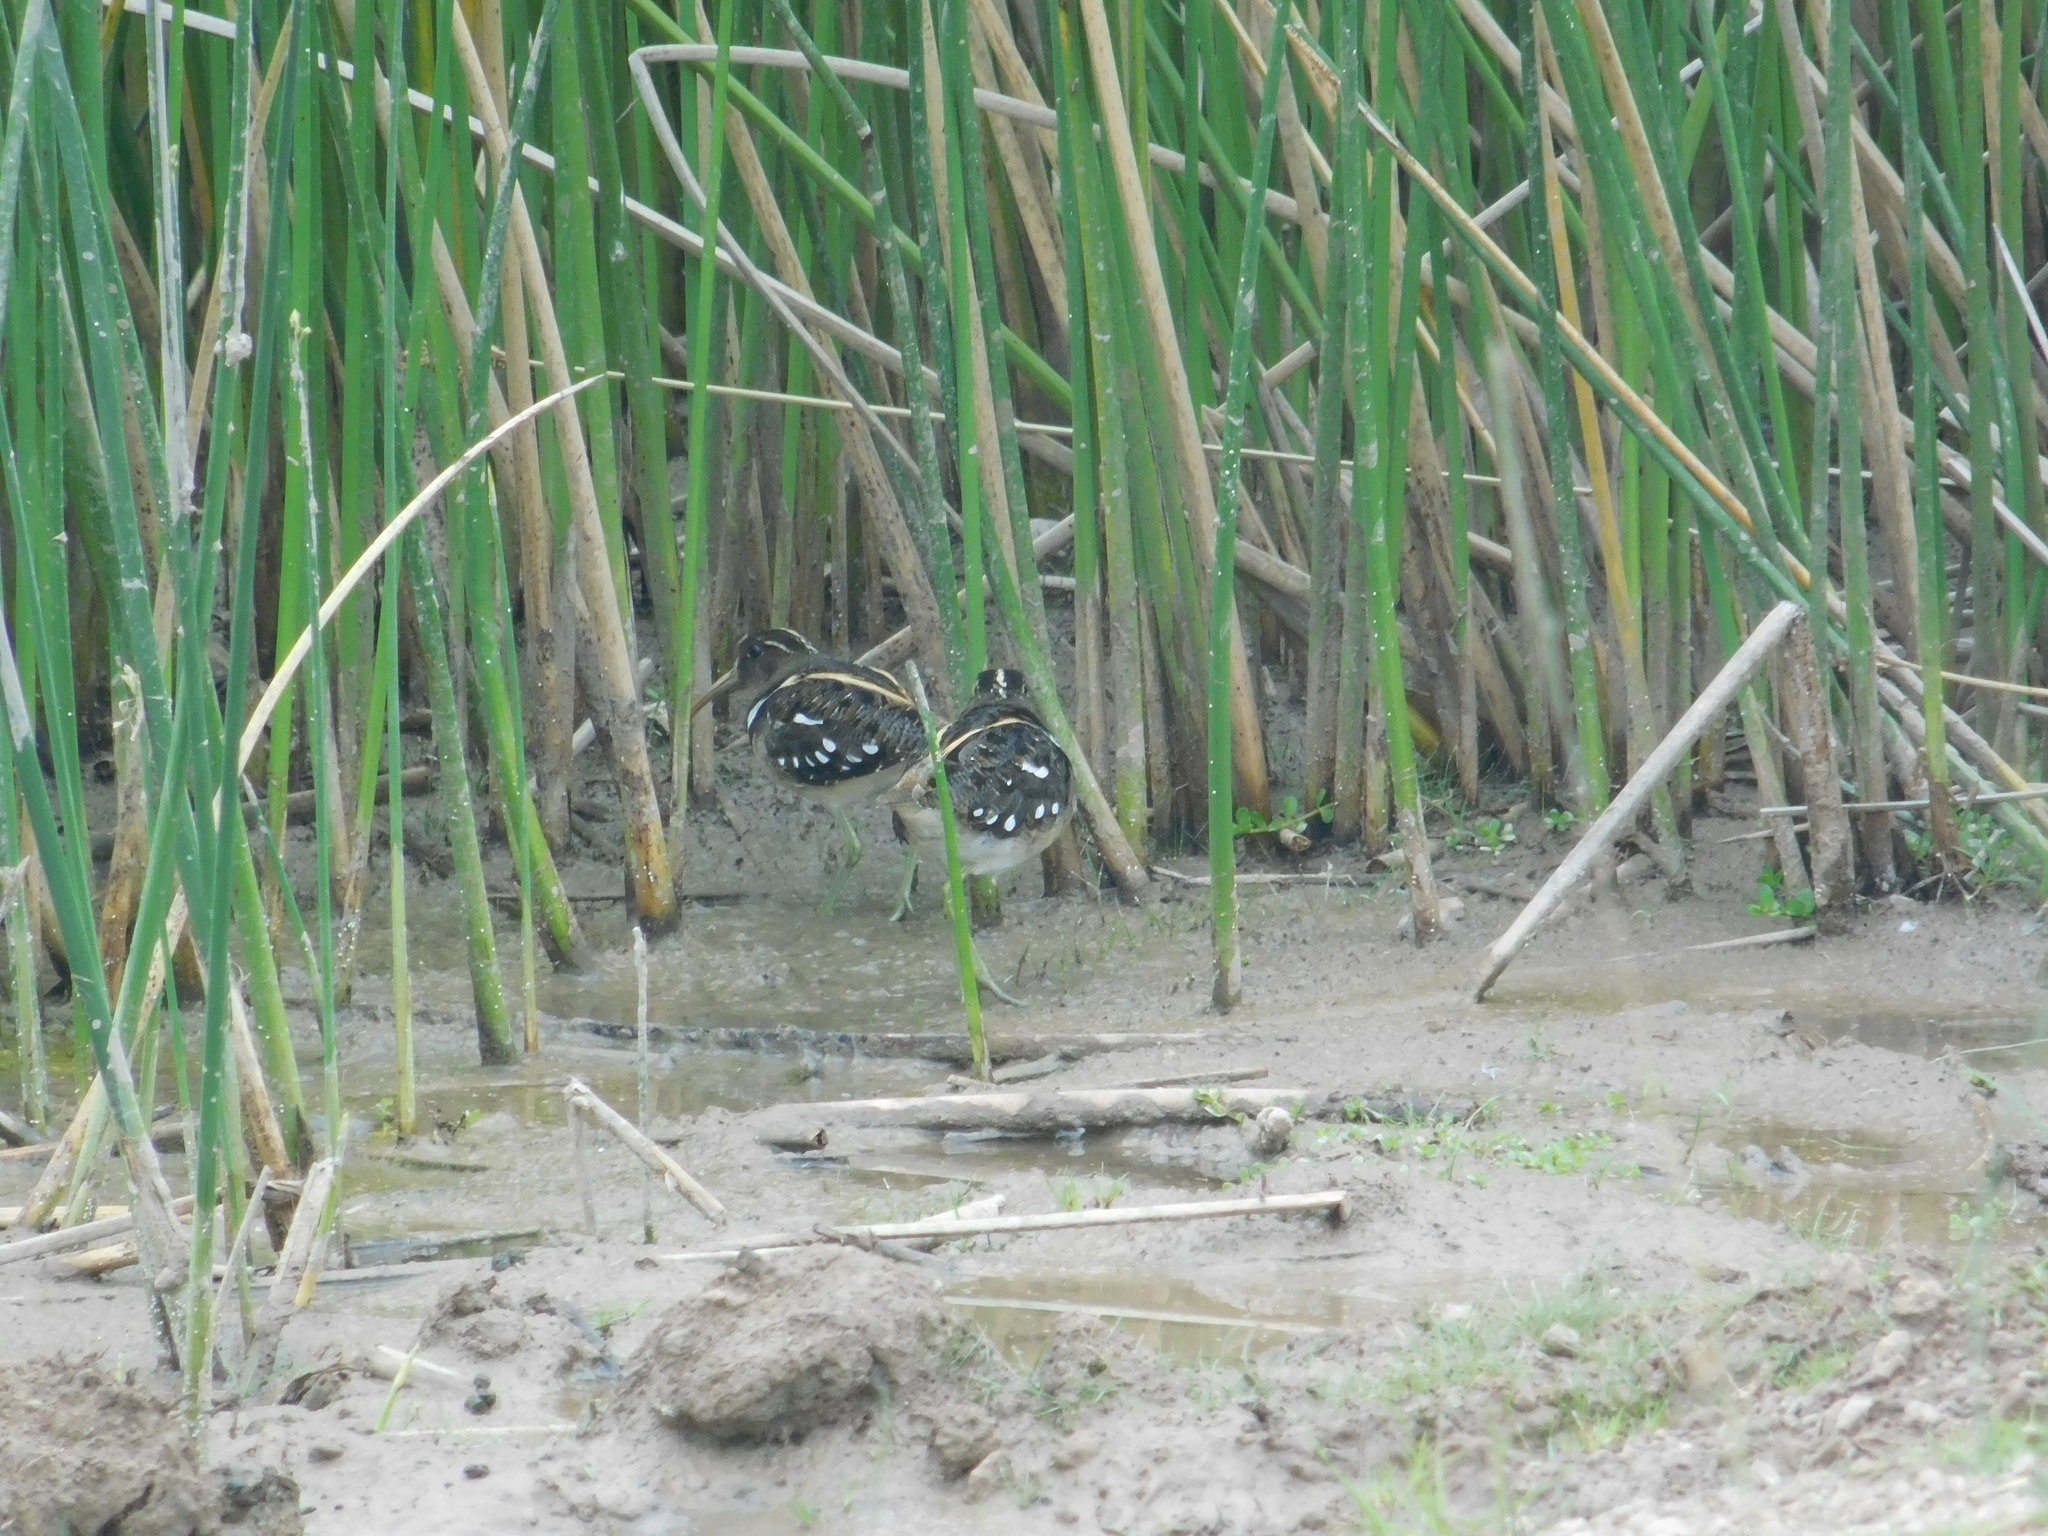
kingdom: Animalia
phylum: Chordata
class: Aves
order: Charadriiformes
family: Rostratulidae
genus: Nycticryphes
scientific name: Nycticryphes semicollaris
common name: South american painted-snipe
